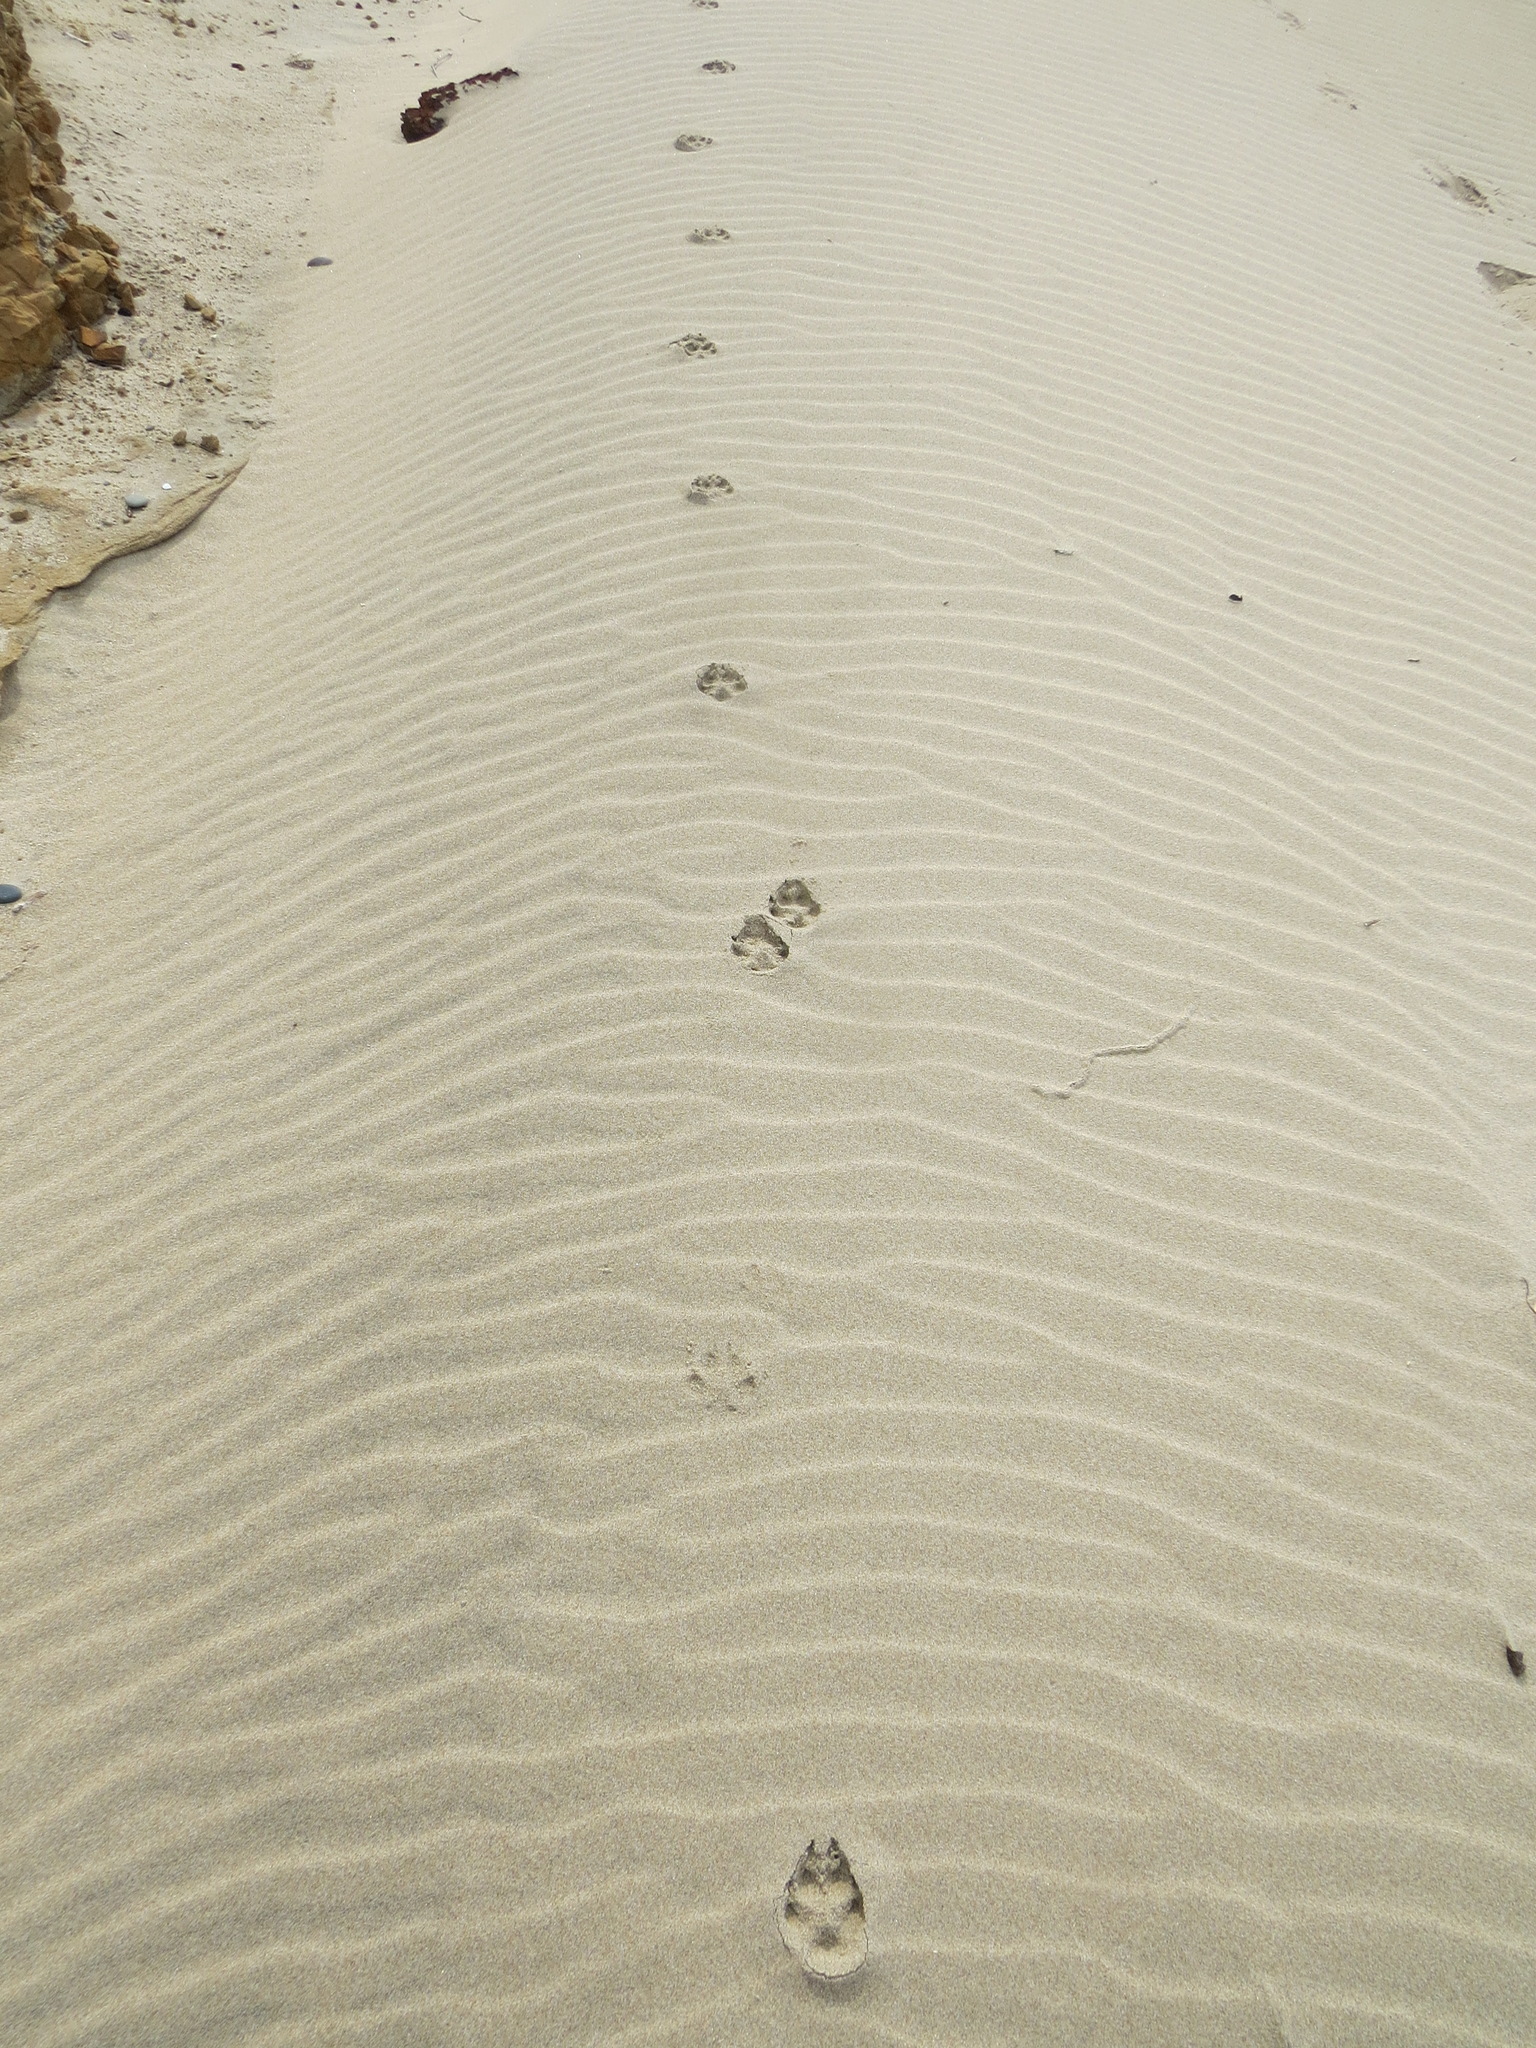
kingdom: Animalia
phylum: Chordata
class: Mammalia
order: Carnivora
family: Canidae
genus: Vulpes
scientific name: Vulpes vulpes
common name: Red fox
